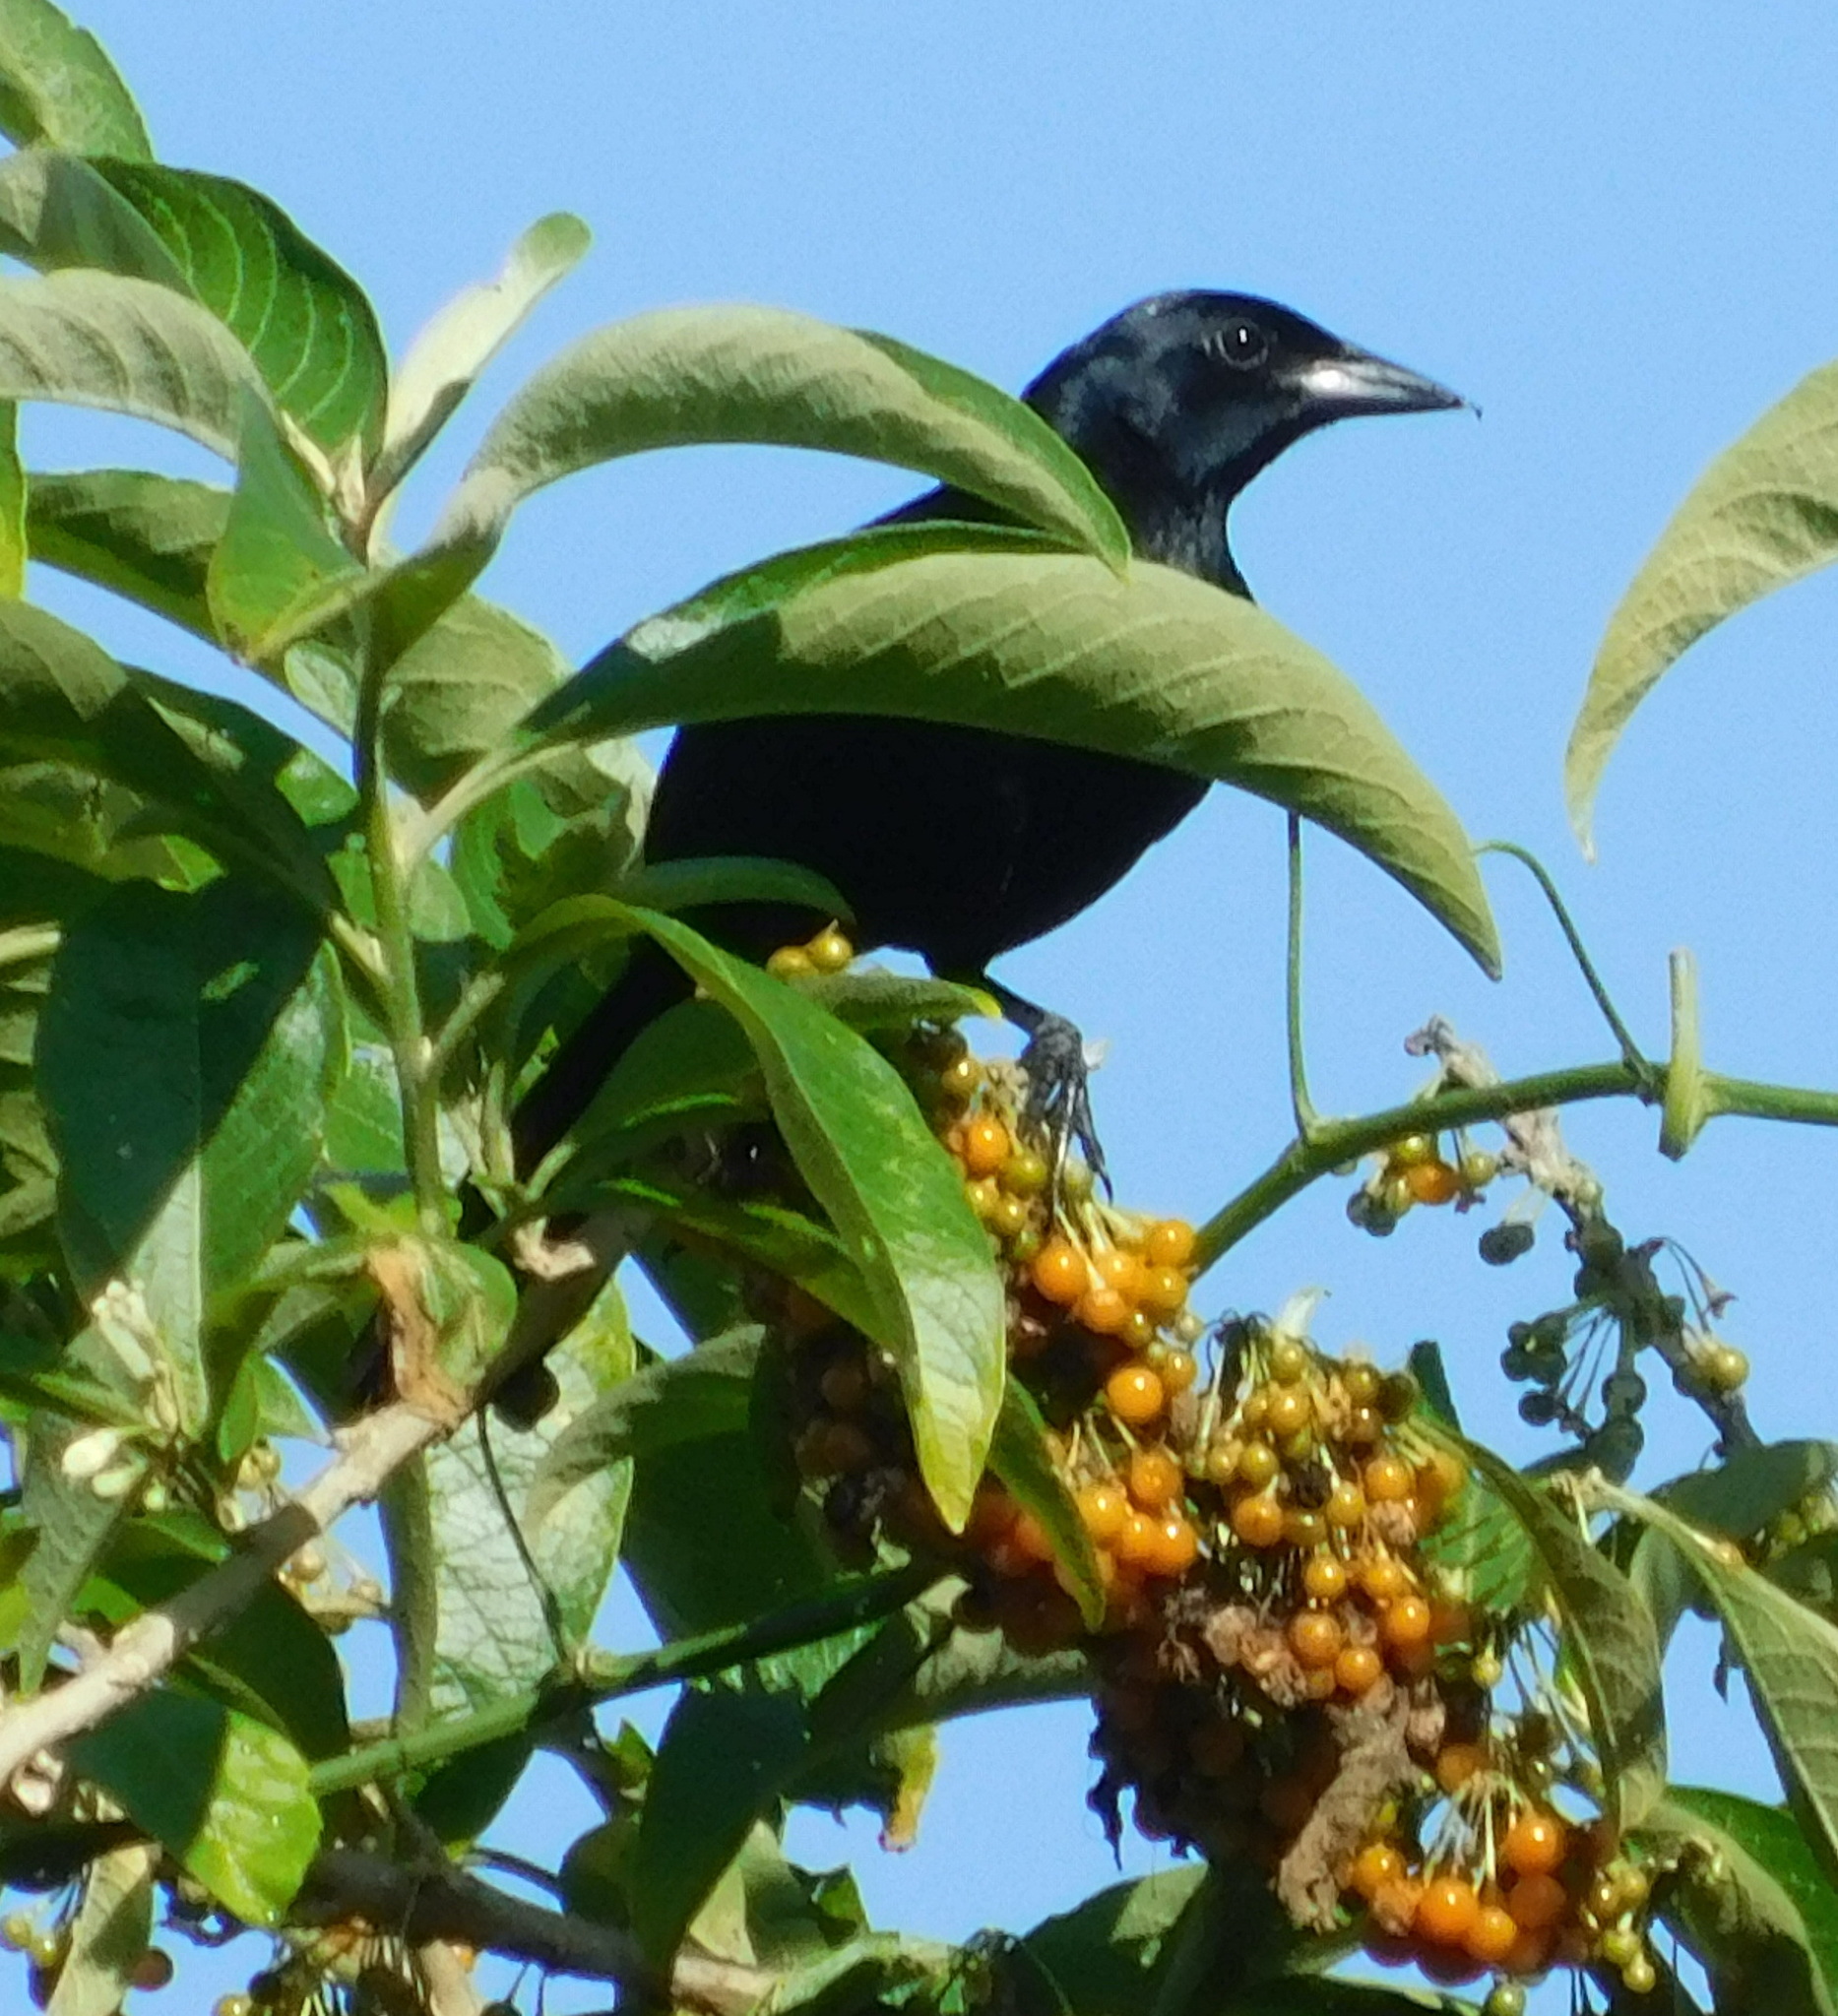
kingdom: Animalia
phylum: Chordata
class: Aves
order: Passeriformes
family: Icteridae
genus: Dives
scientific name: Dives dives
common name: Melodious blackbird
